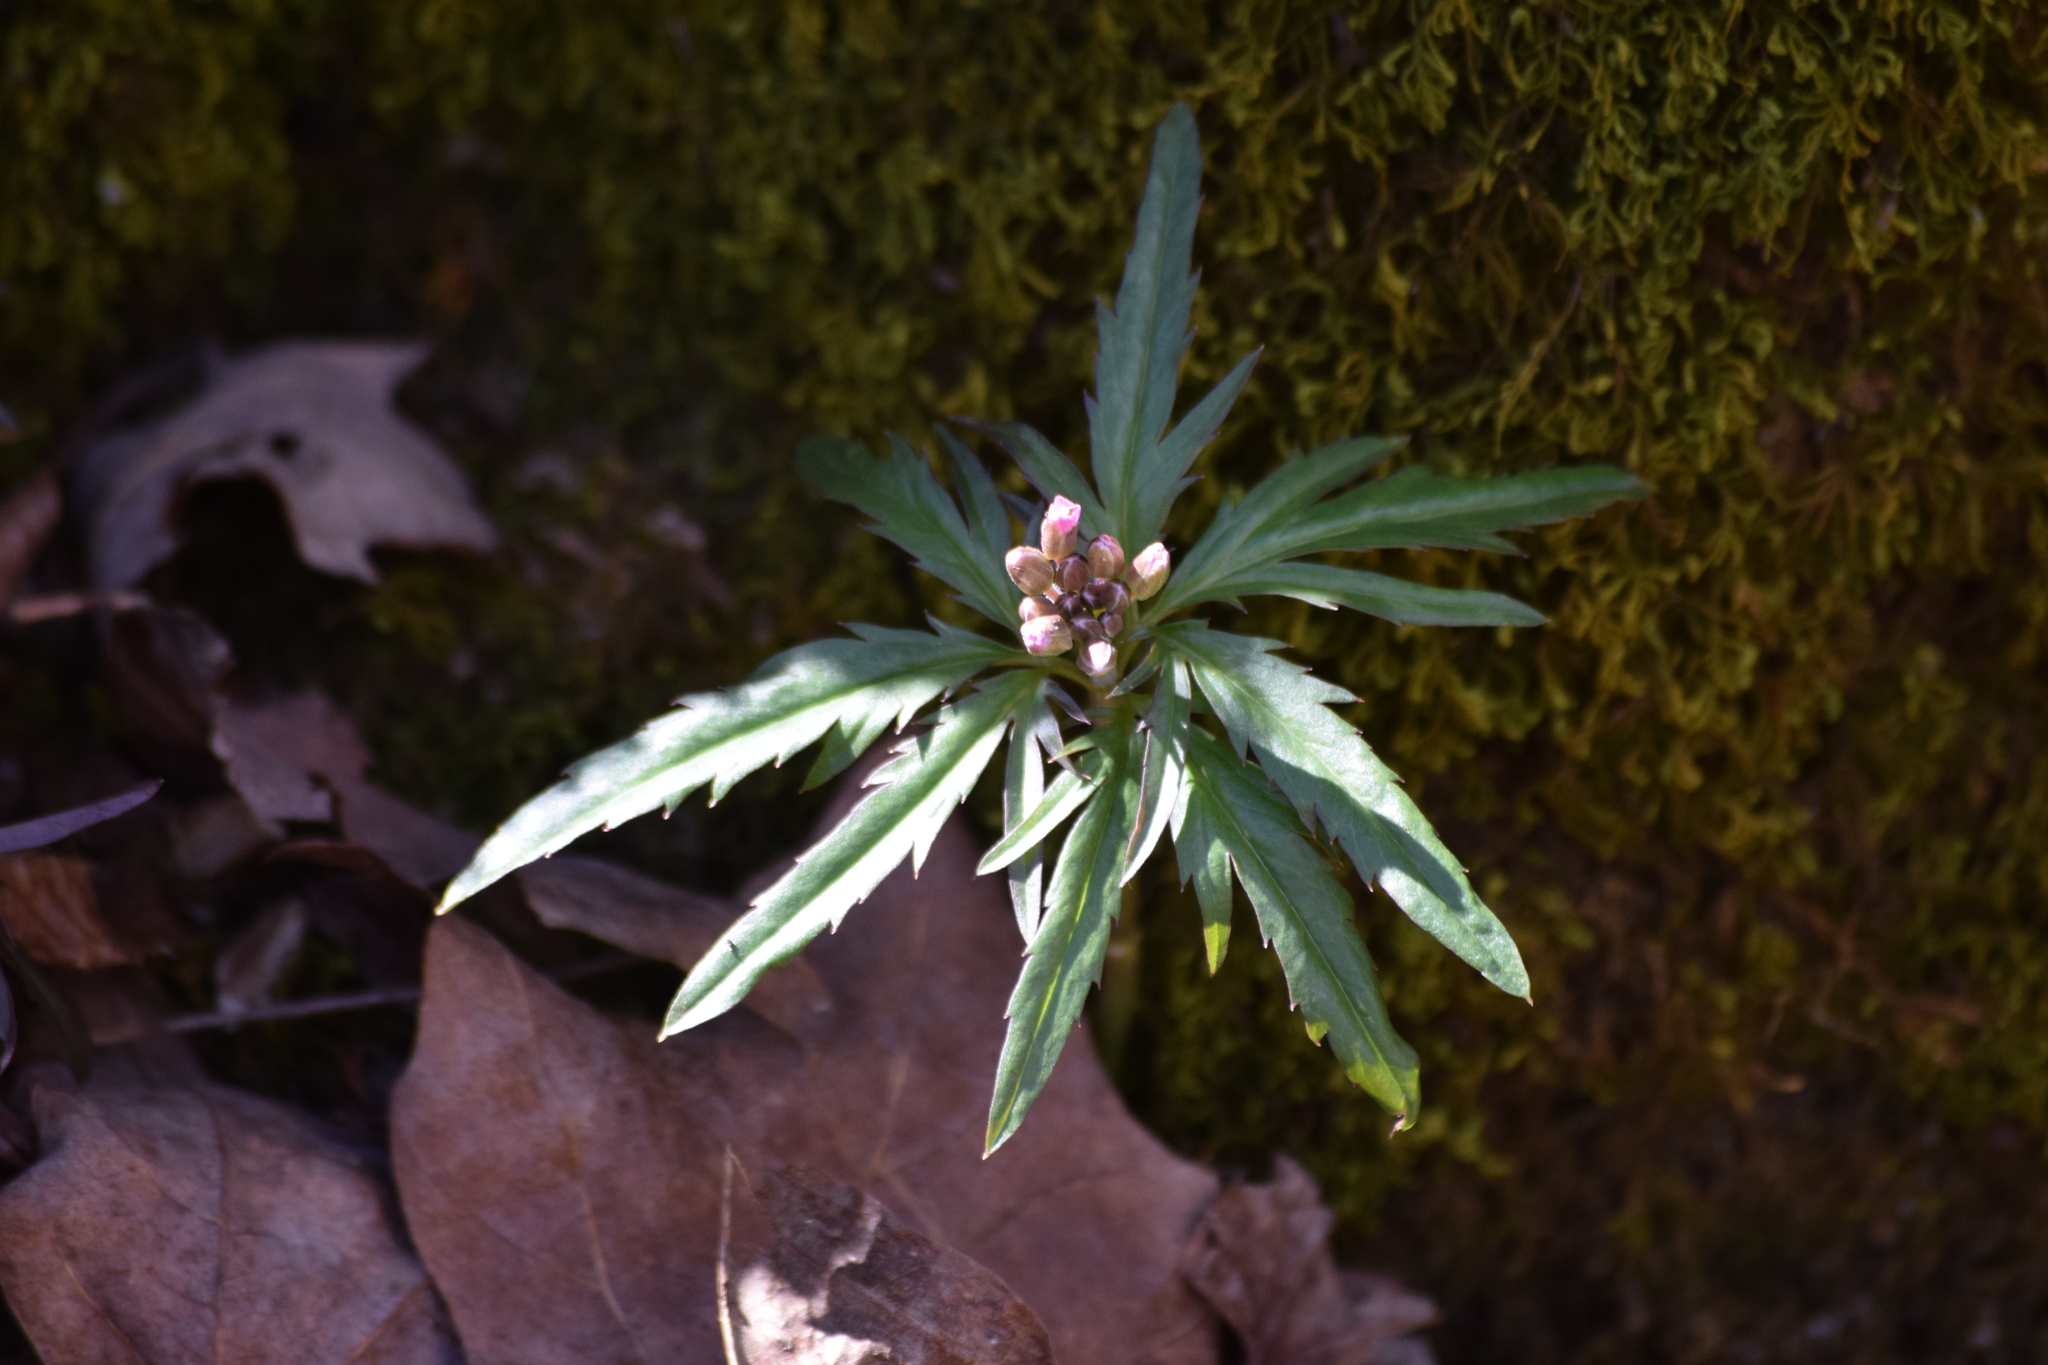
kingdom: Plantae
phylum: Tracheophyta
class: Magnoliopsida
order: Brassicales
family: Brassicaceae
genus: Cardamine
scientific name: Cardamine concatenata
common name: Cut-leaf toothcup
